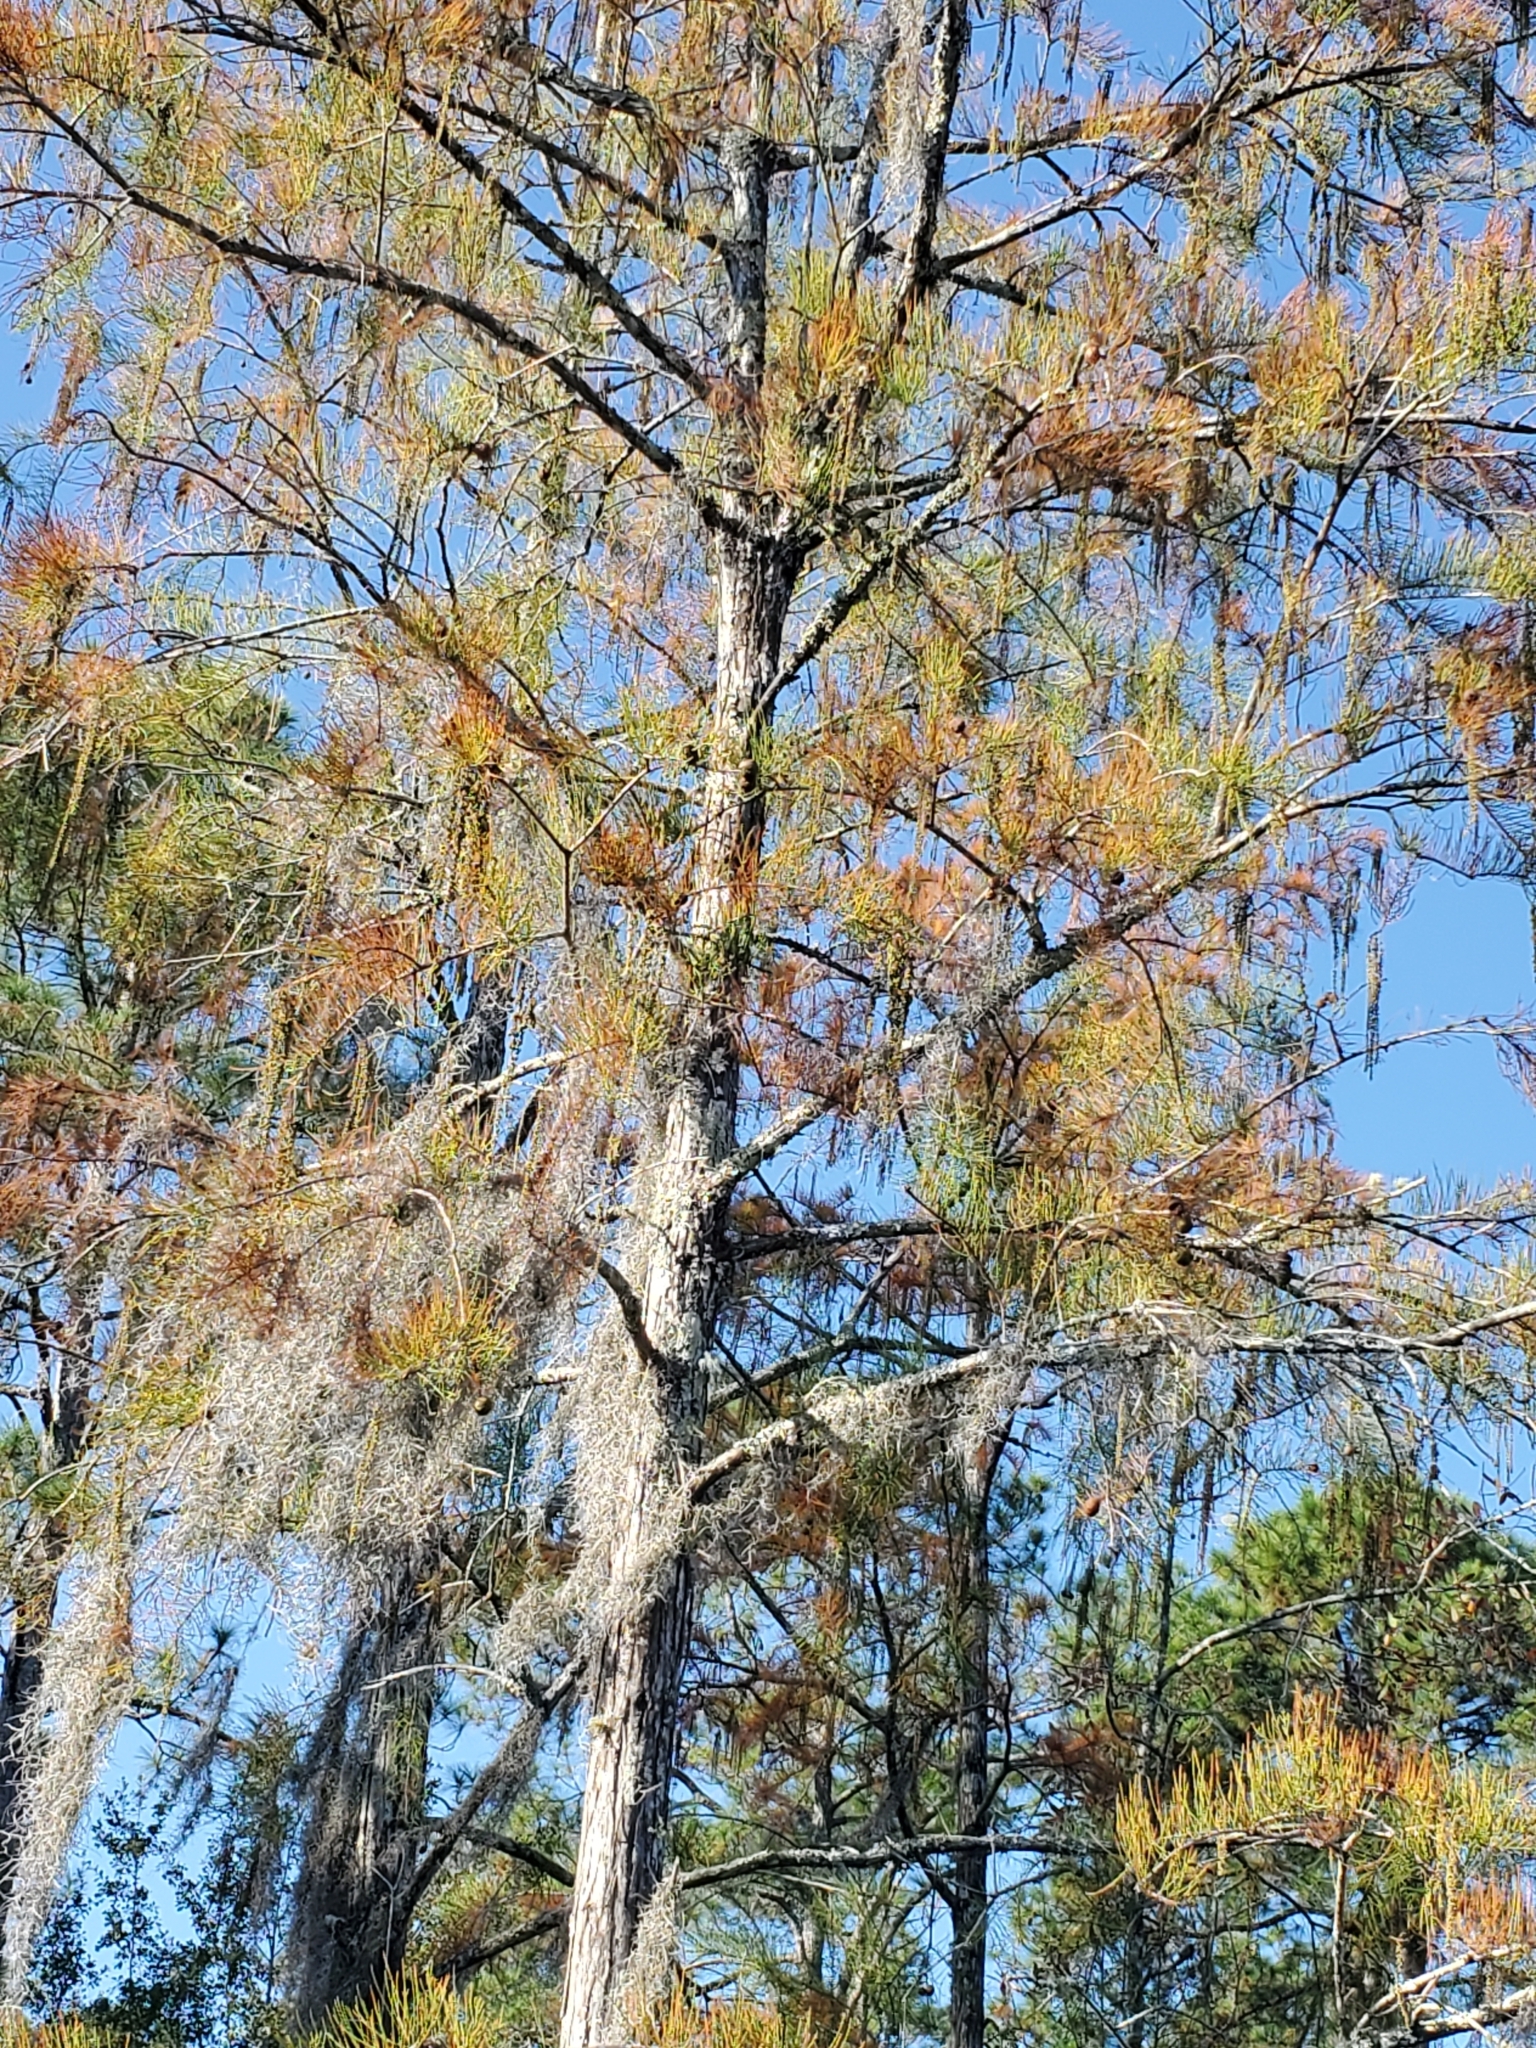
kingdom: Plantae
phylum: Tracheophyta
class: Pinopsida
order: Pinales
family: Cupressaceae
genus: Taxodium
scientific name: Taxodium distichum
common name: Bald cypress
